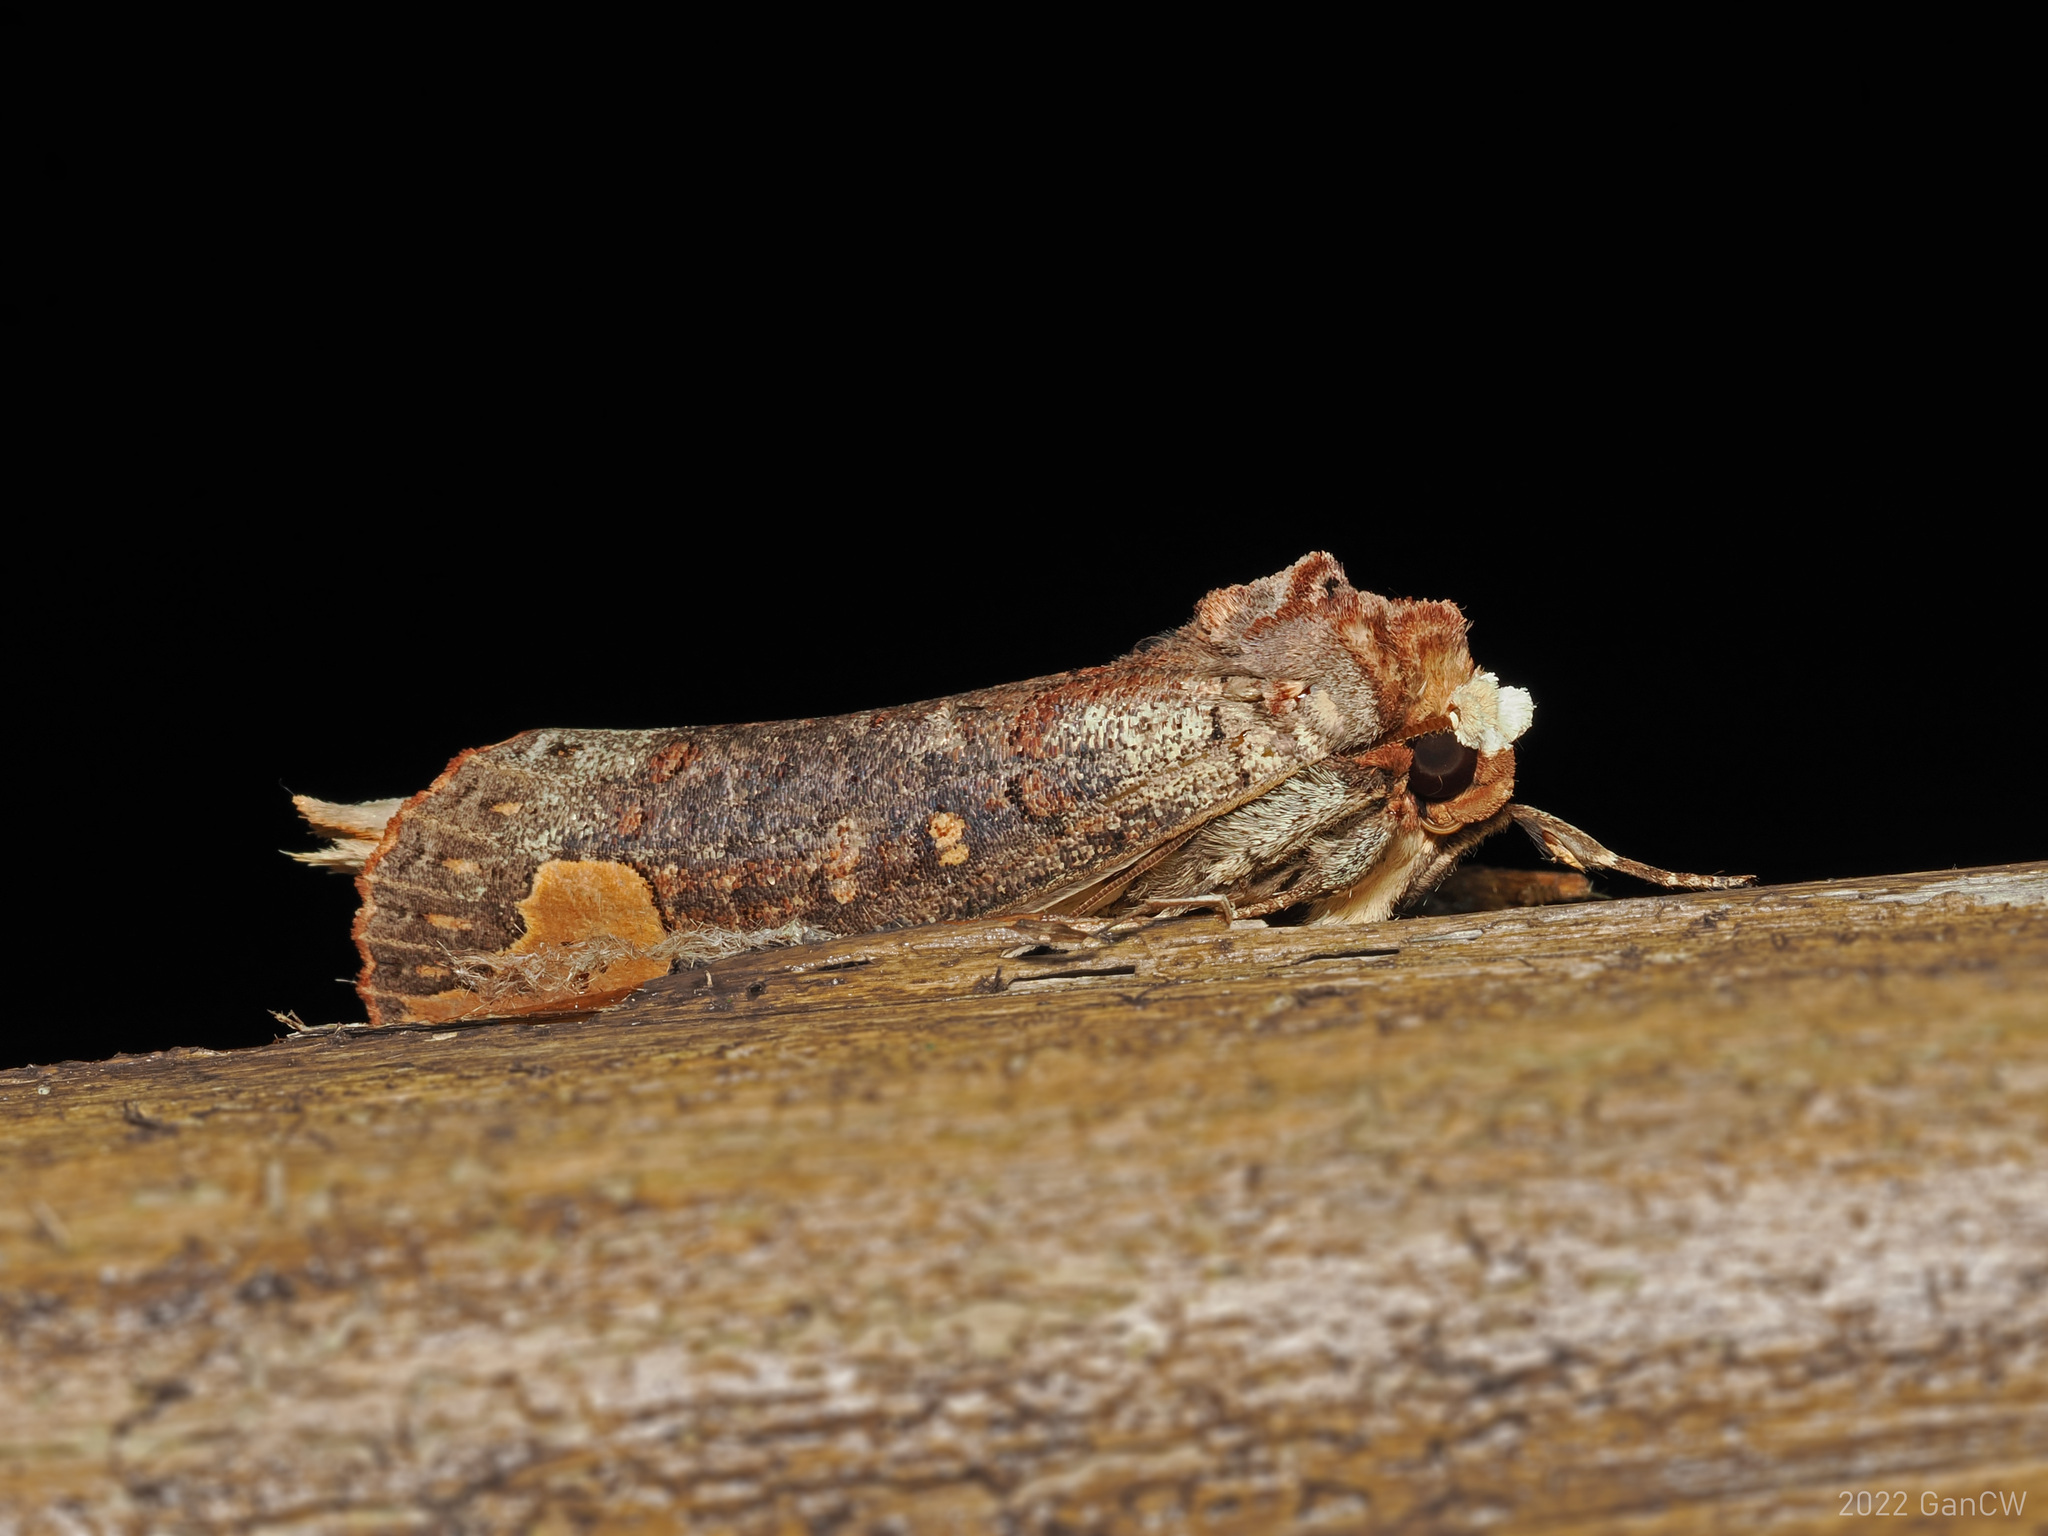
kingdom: Animalia
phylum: Arthropoda
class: Insecta
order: Lepidoptera
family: Notodontidae
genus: Phalera
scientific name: Phalera sundana
